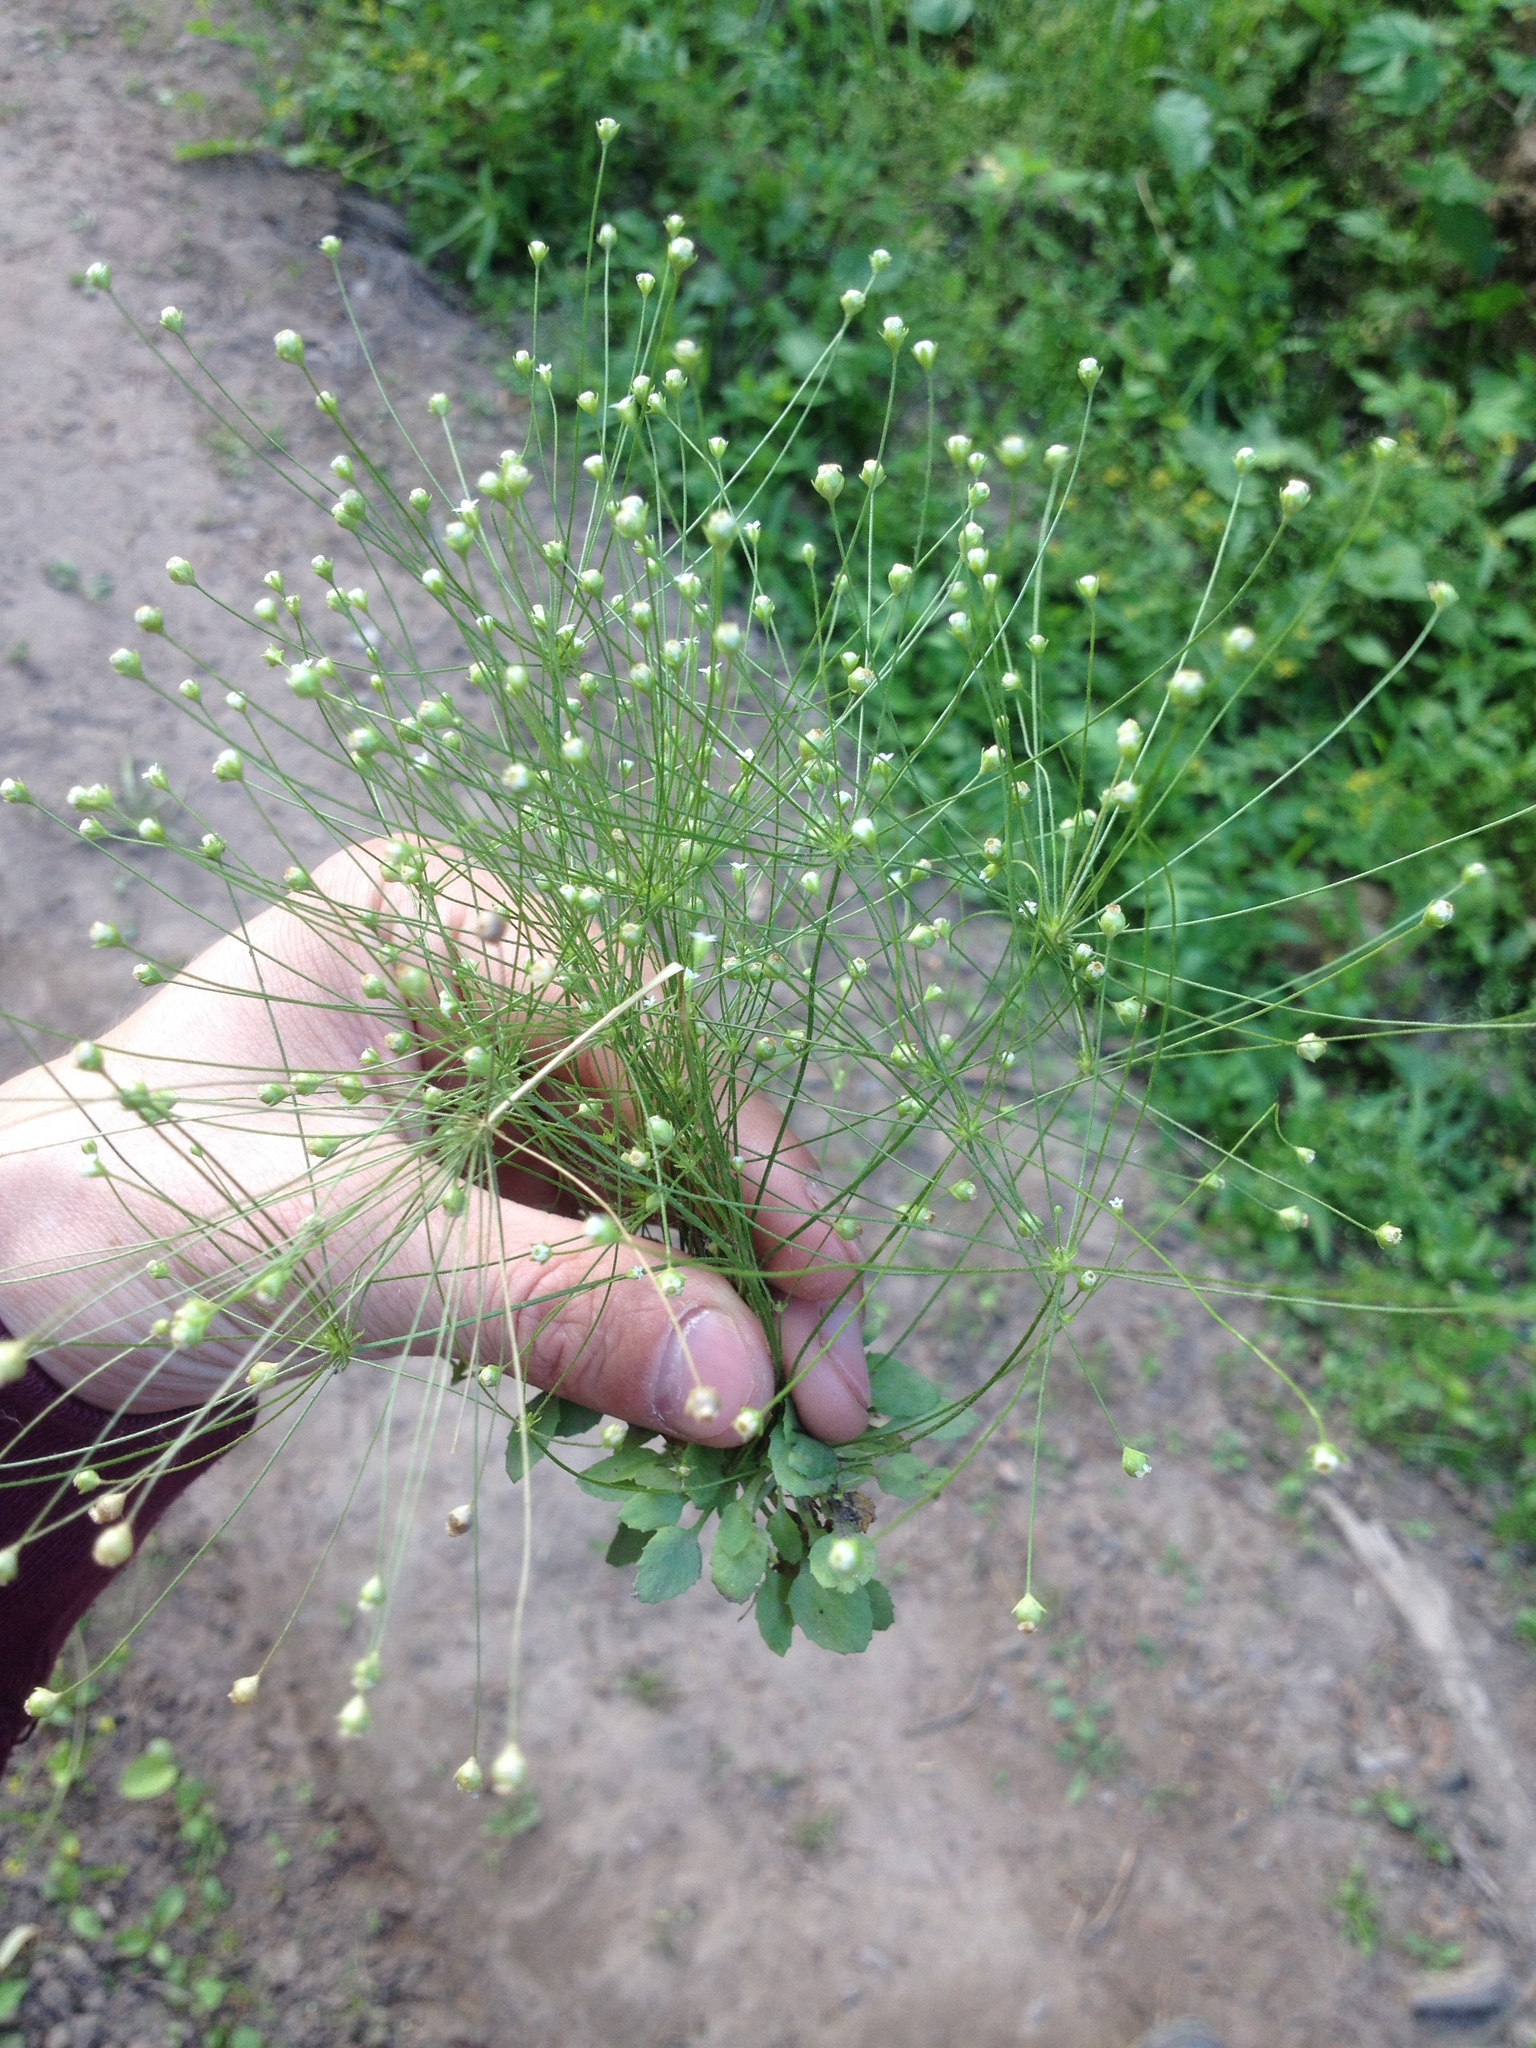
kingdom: Plantae
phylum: Tracheophyta
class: Magnoliopsida
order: Ericales
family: Primulaceae
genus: Androsace
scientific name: Androsace filiformis
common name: Filiform rock jasmine
